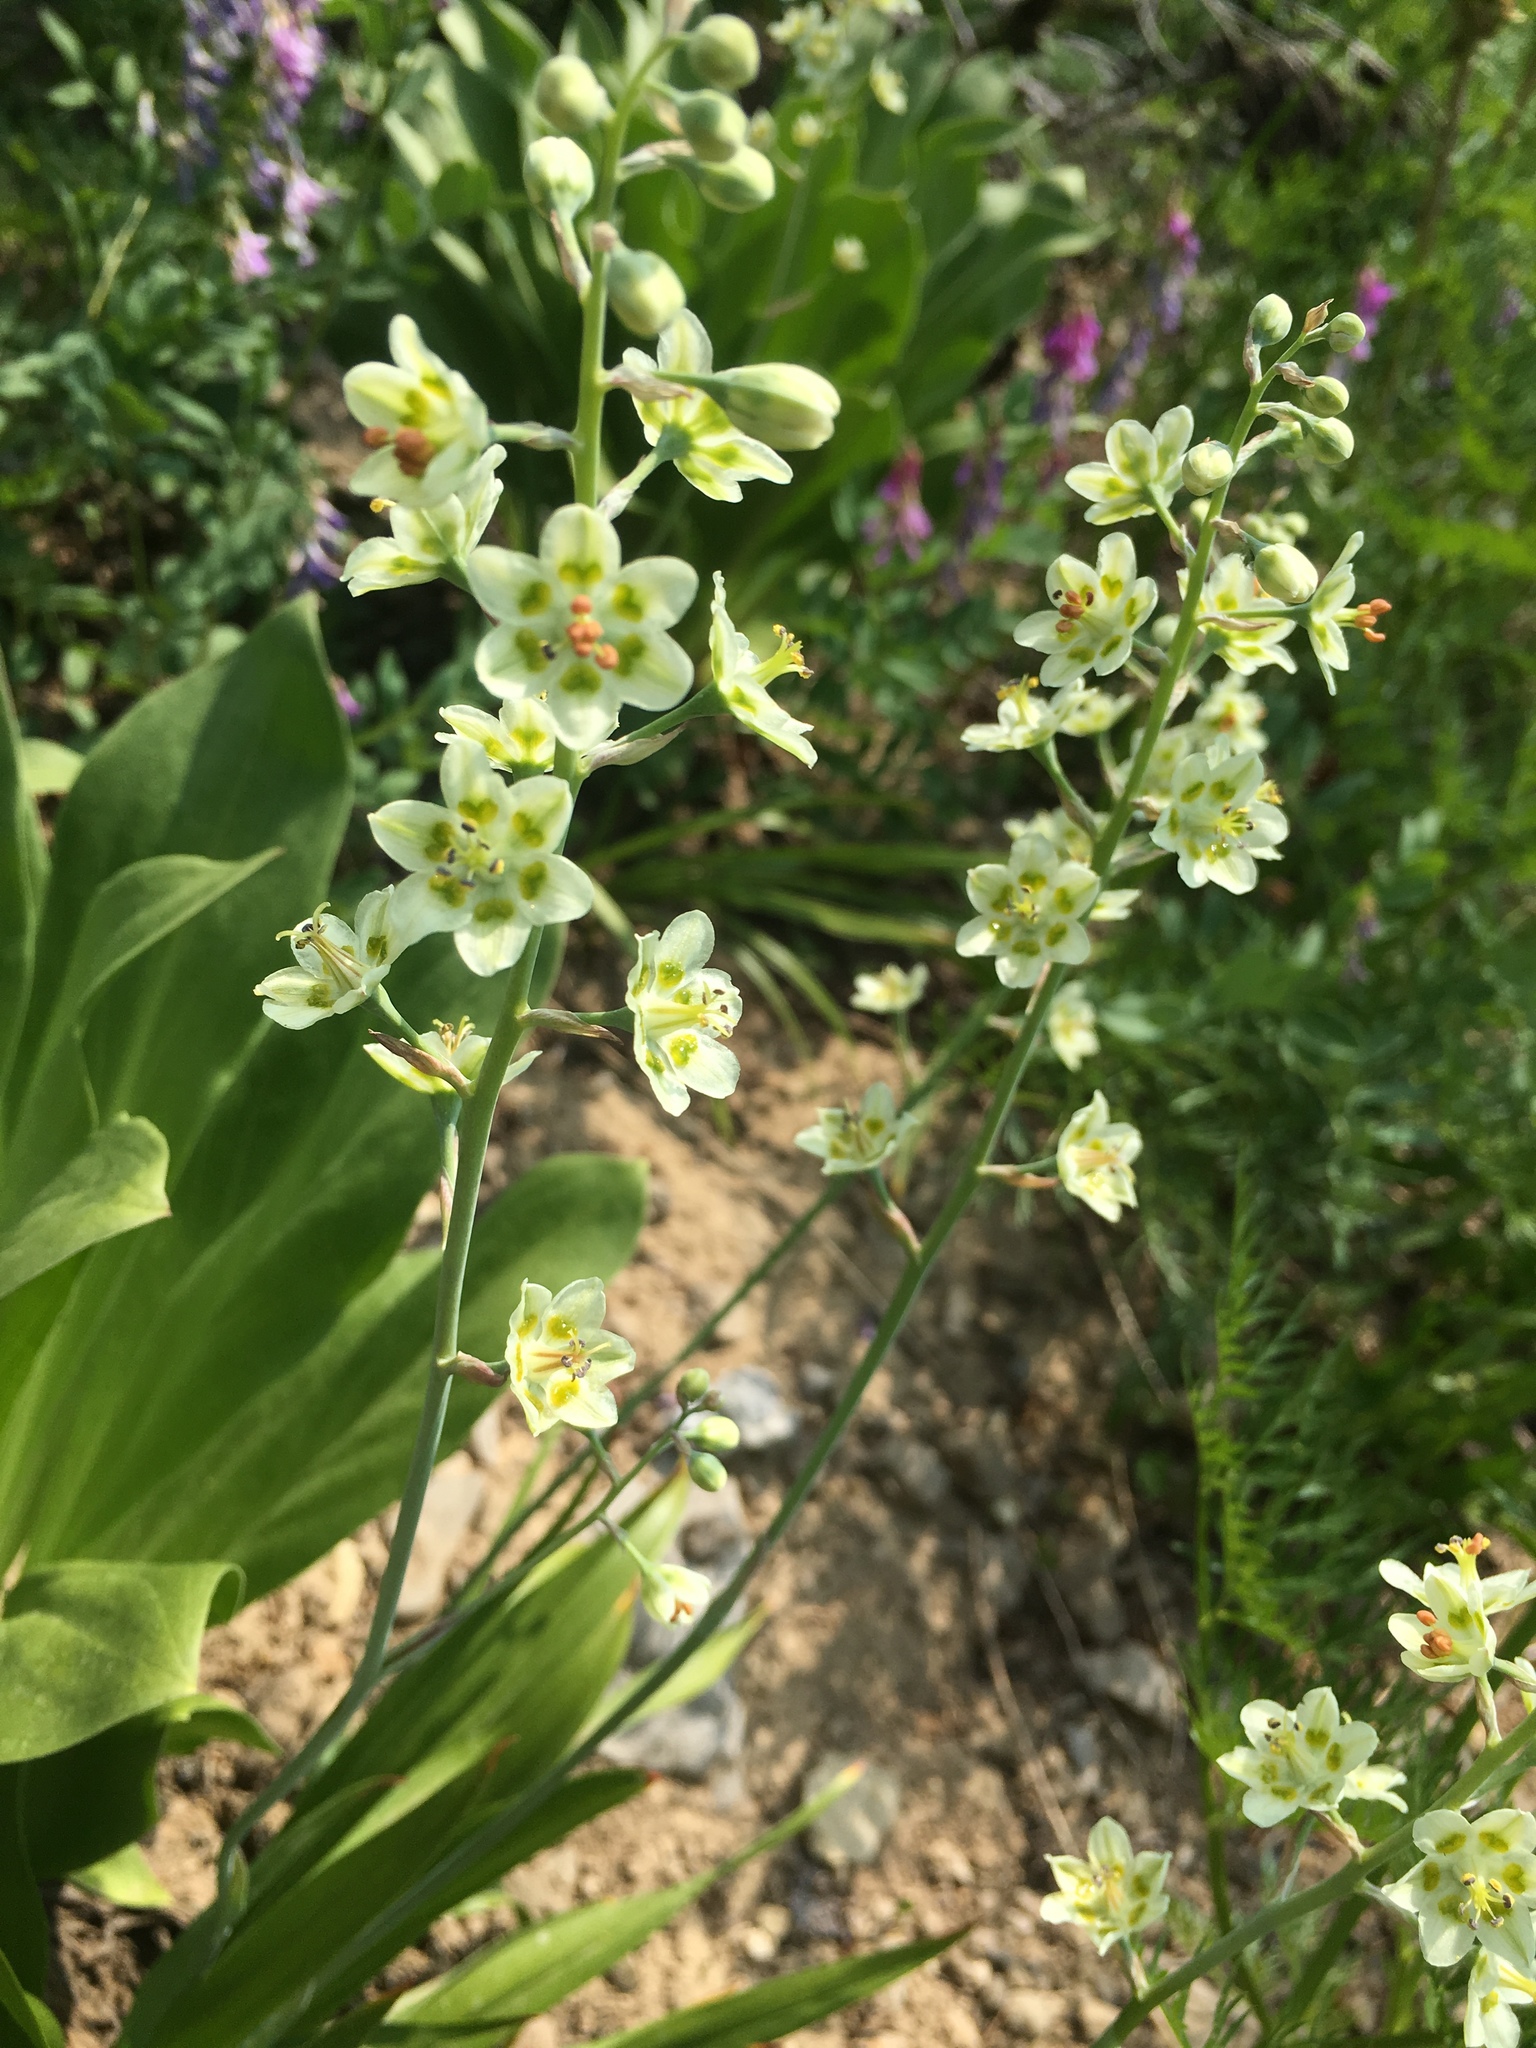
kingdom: Plantae
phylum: Tracheophyta
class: Liliopsida
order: Liliales
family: Melanthiaceae
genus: Anticlea
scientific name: Anticlea elegans
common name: Mountain death camas
